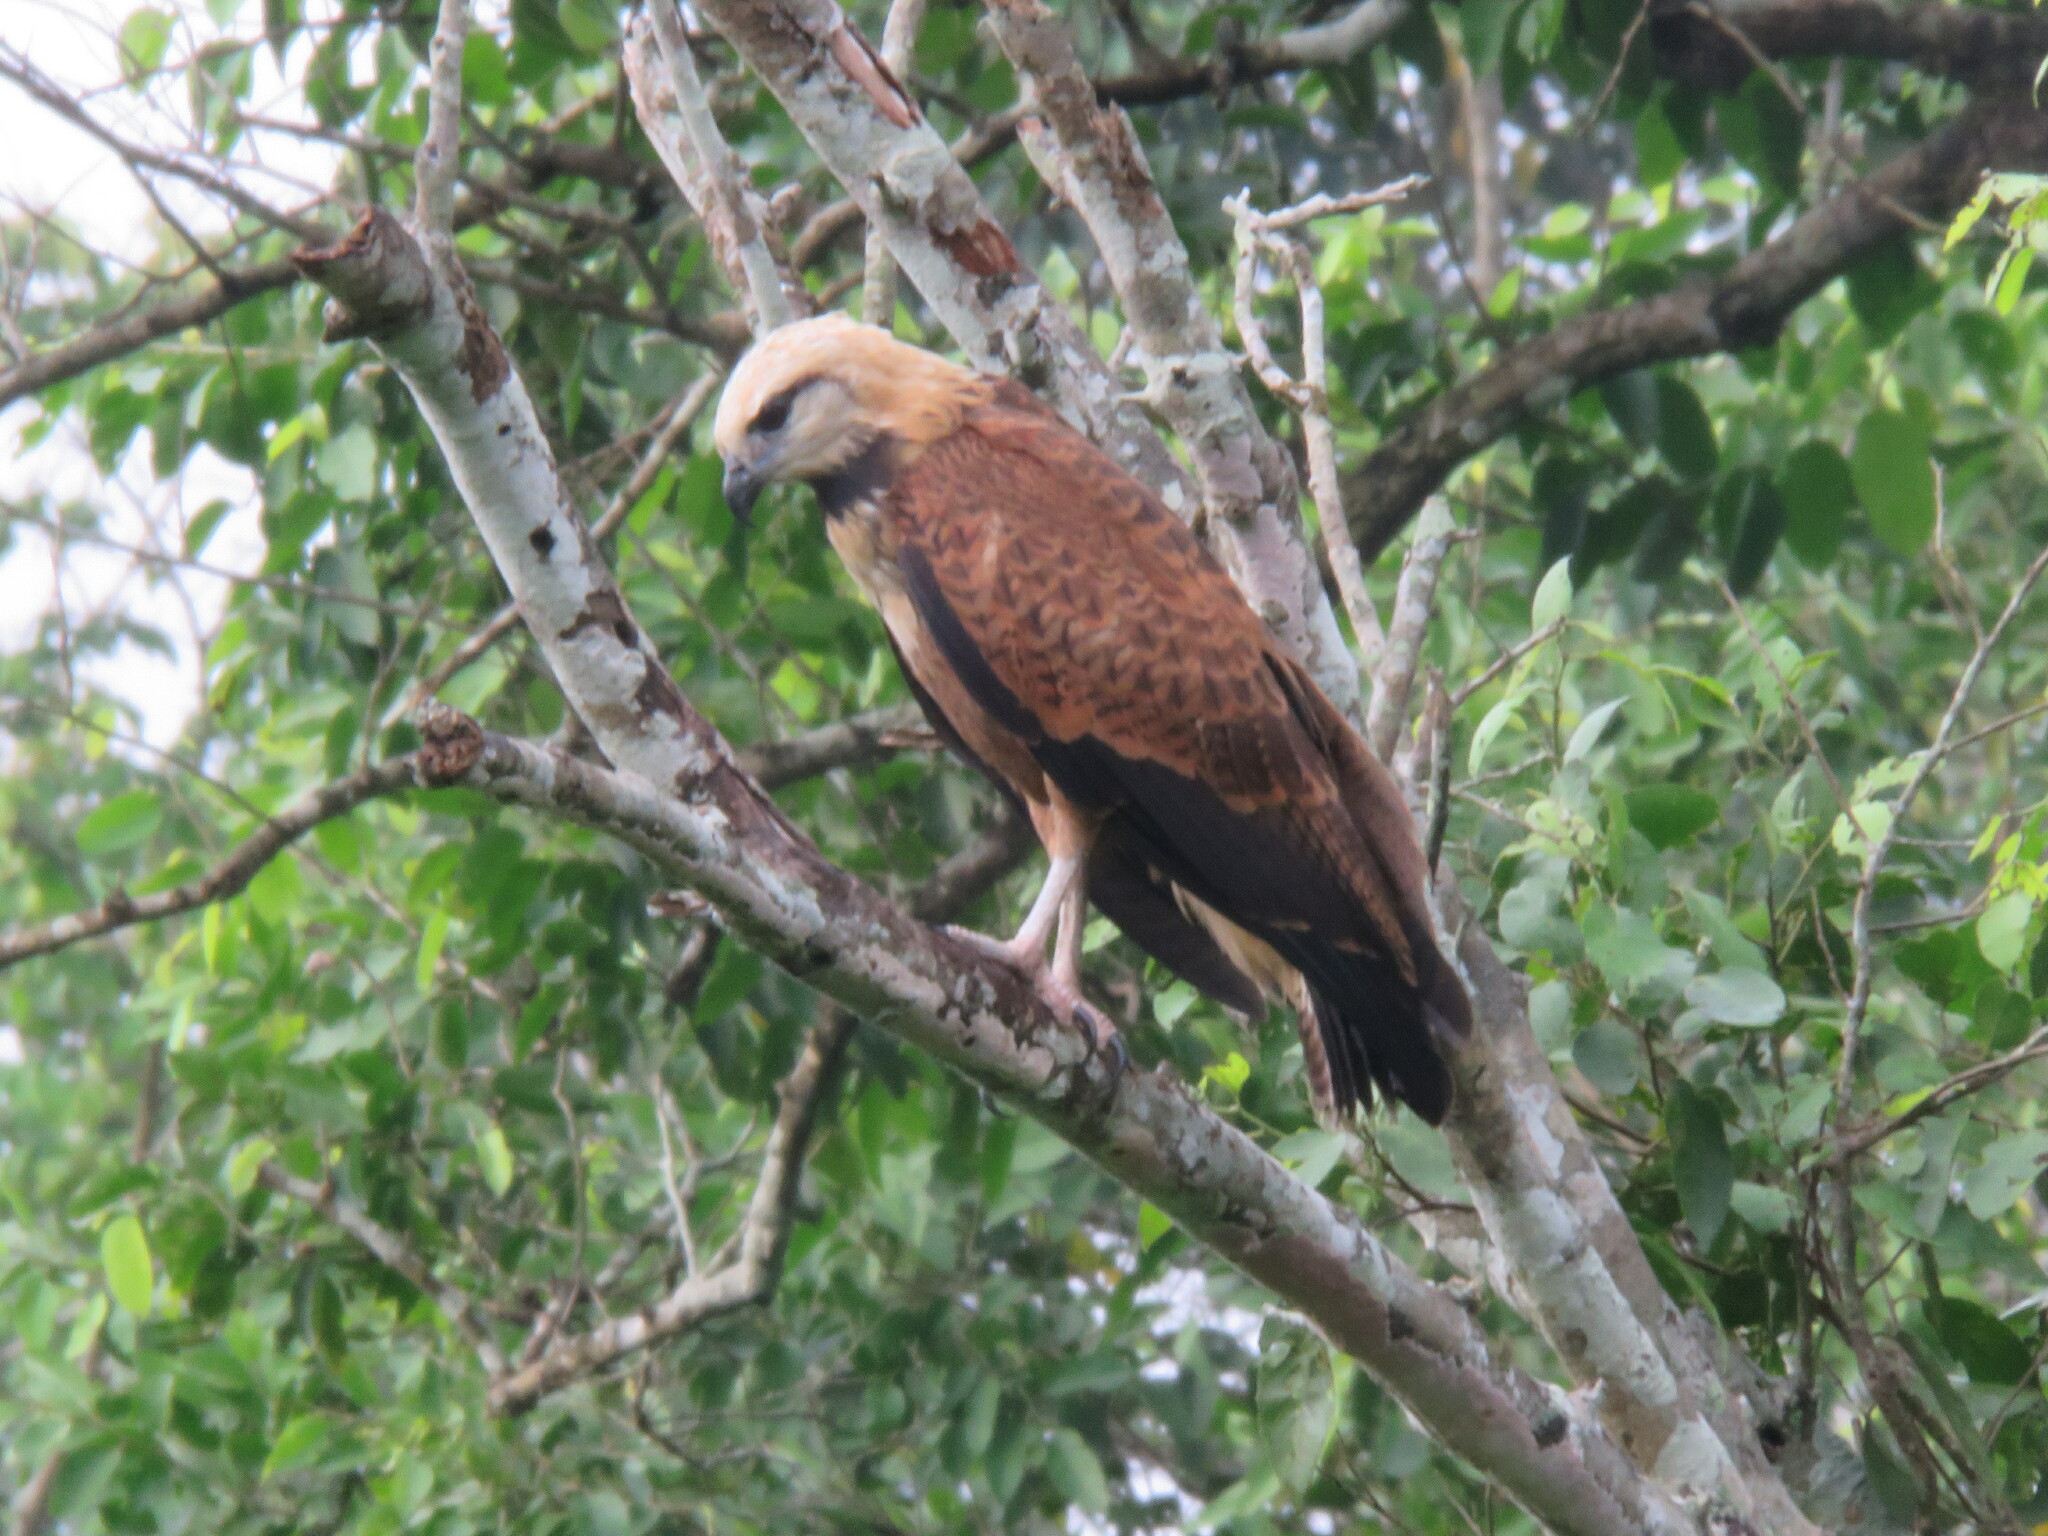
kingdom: Animalia
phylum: Chordata
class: Aves
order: Accipitriformes
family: Accipitridae
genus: Busarellus
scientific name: Busarellus nigricollis
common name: Black-collared hawk
